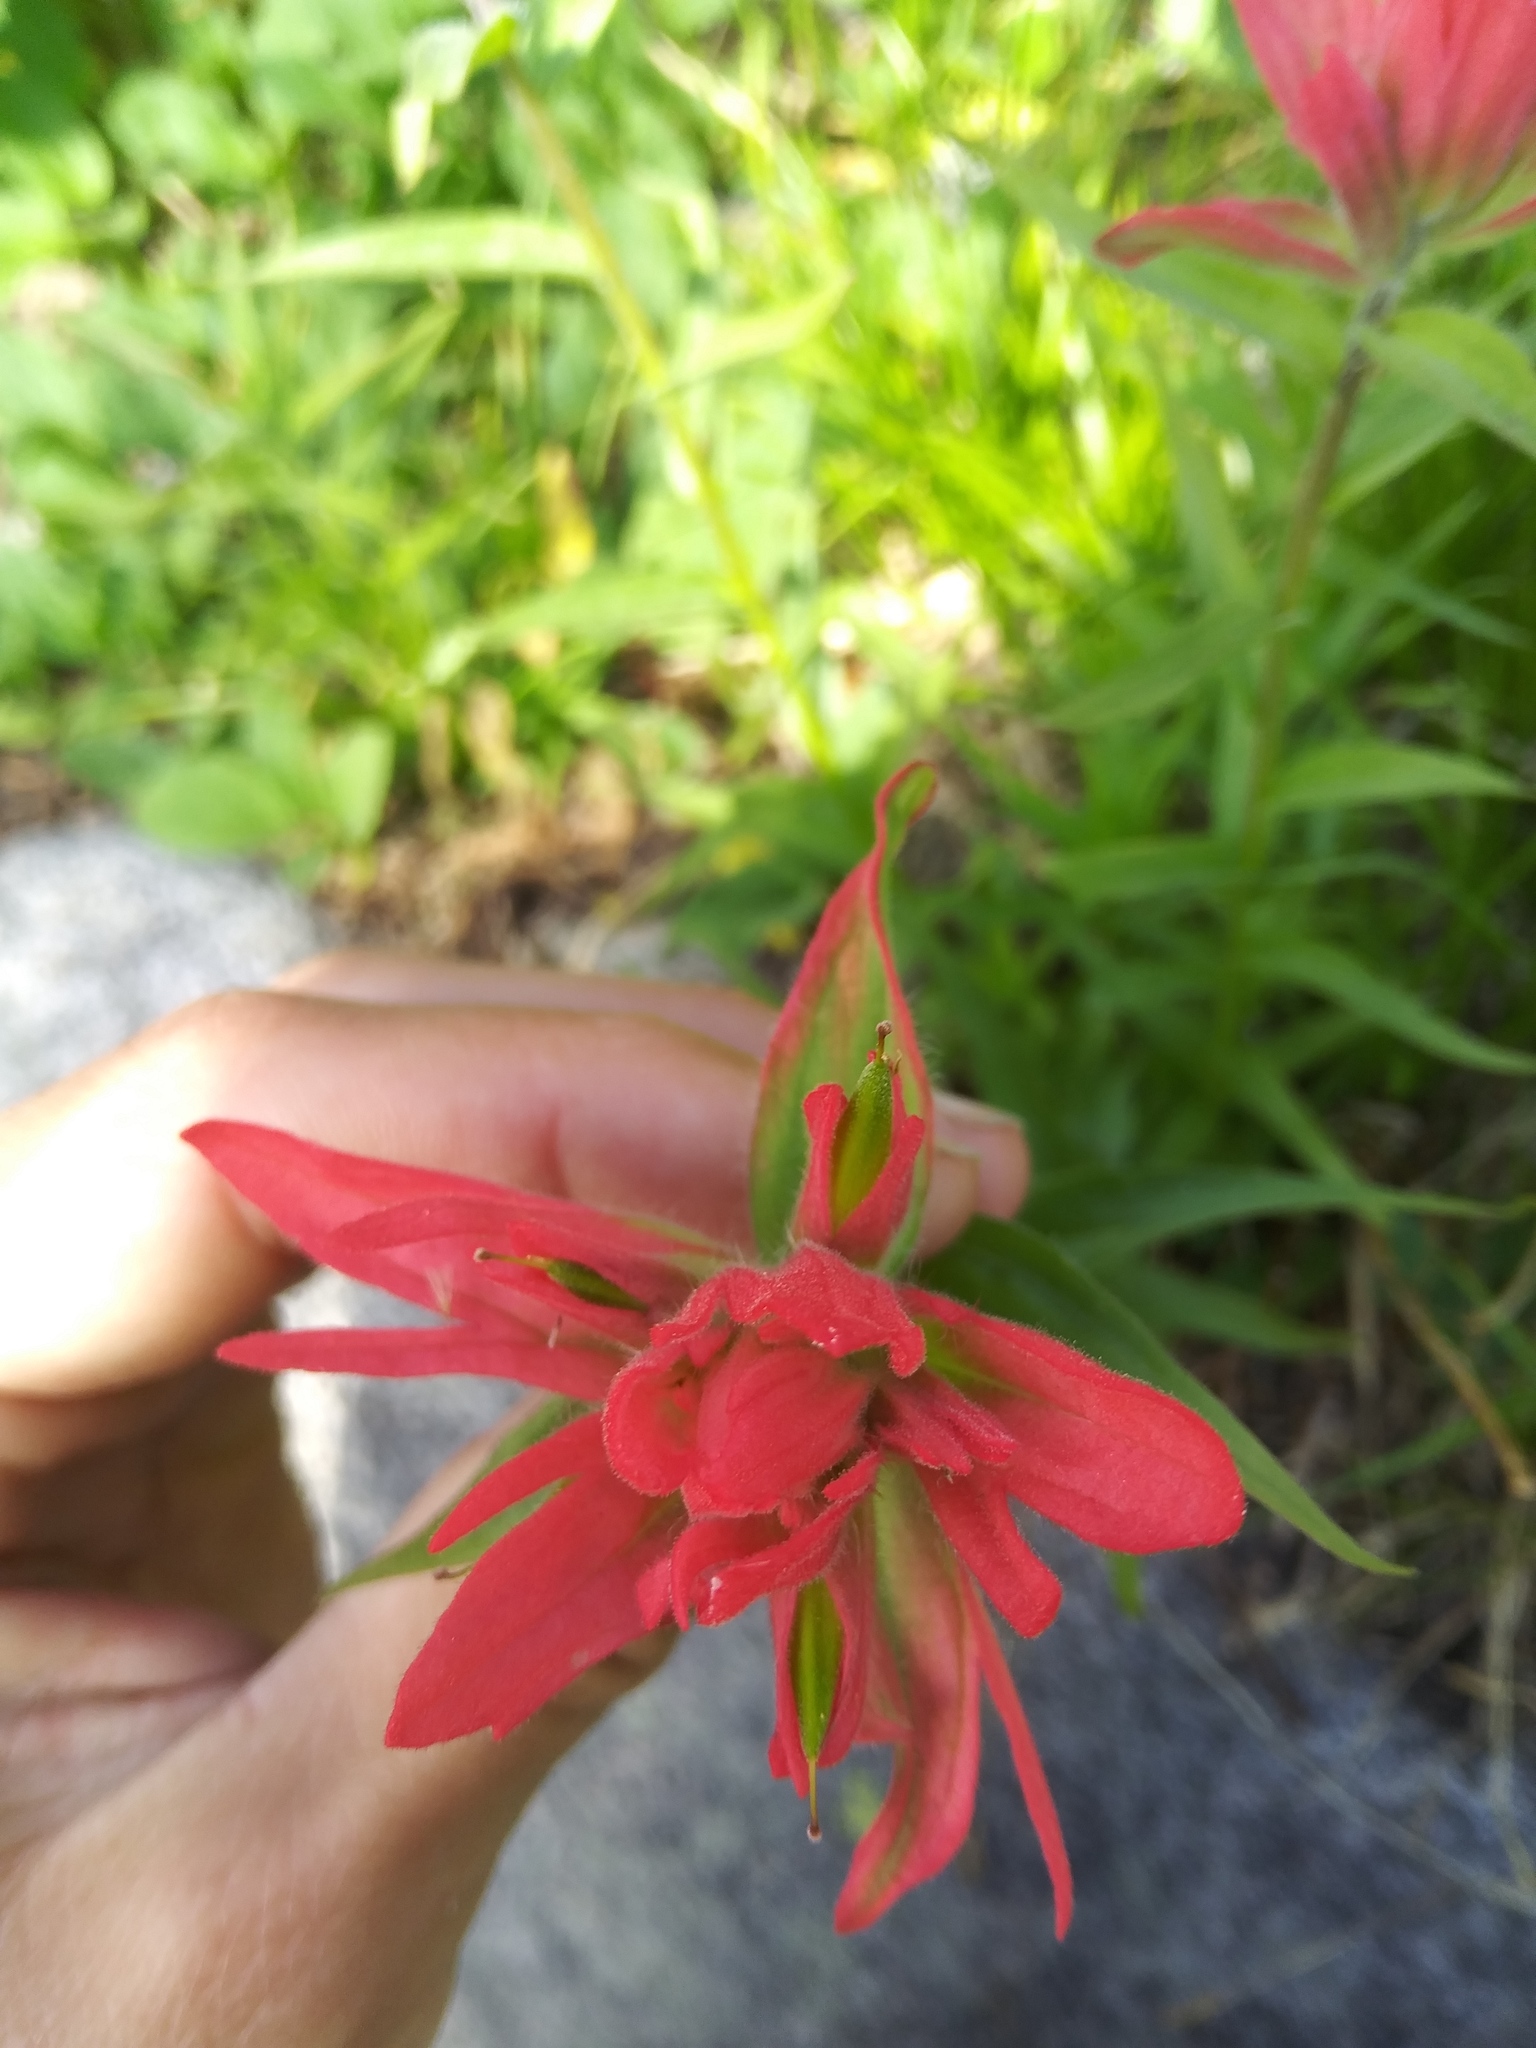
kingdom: Plantae
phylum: Tracheophyta
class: Magnoliopsida
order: Lamiales
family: Orobanchaceae
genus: Castilleja
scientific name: Castilleja rhexifolia
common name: Rocky mountain paintbrush
